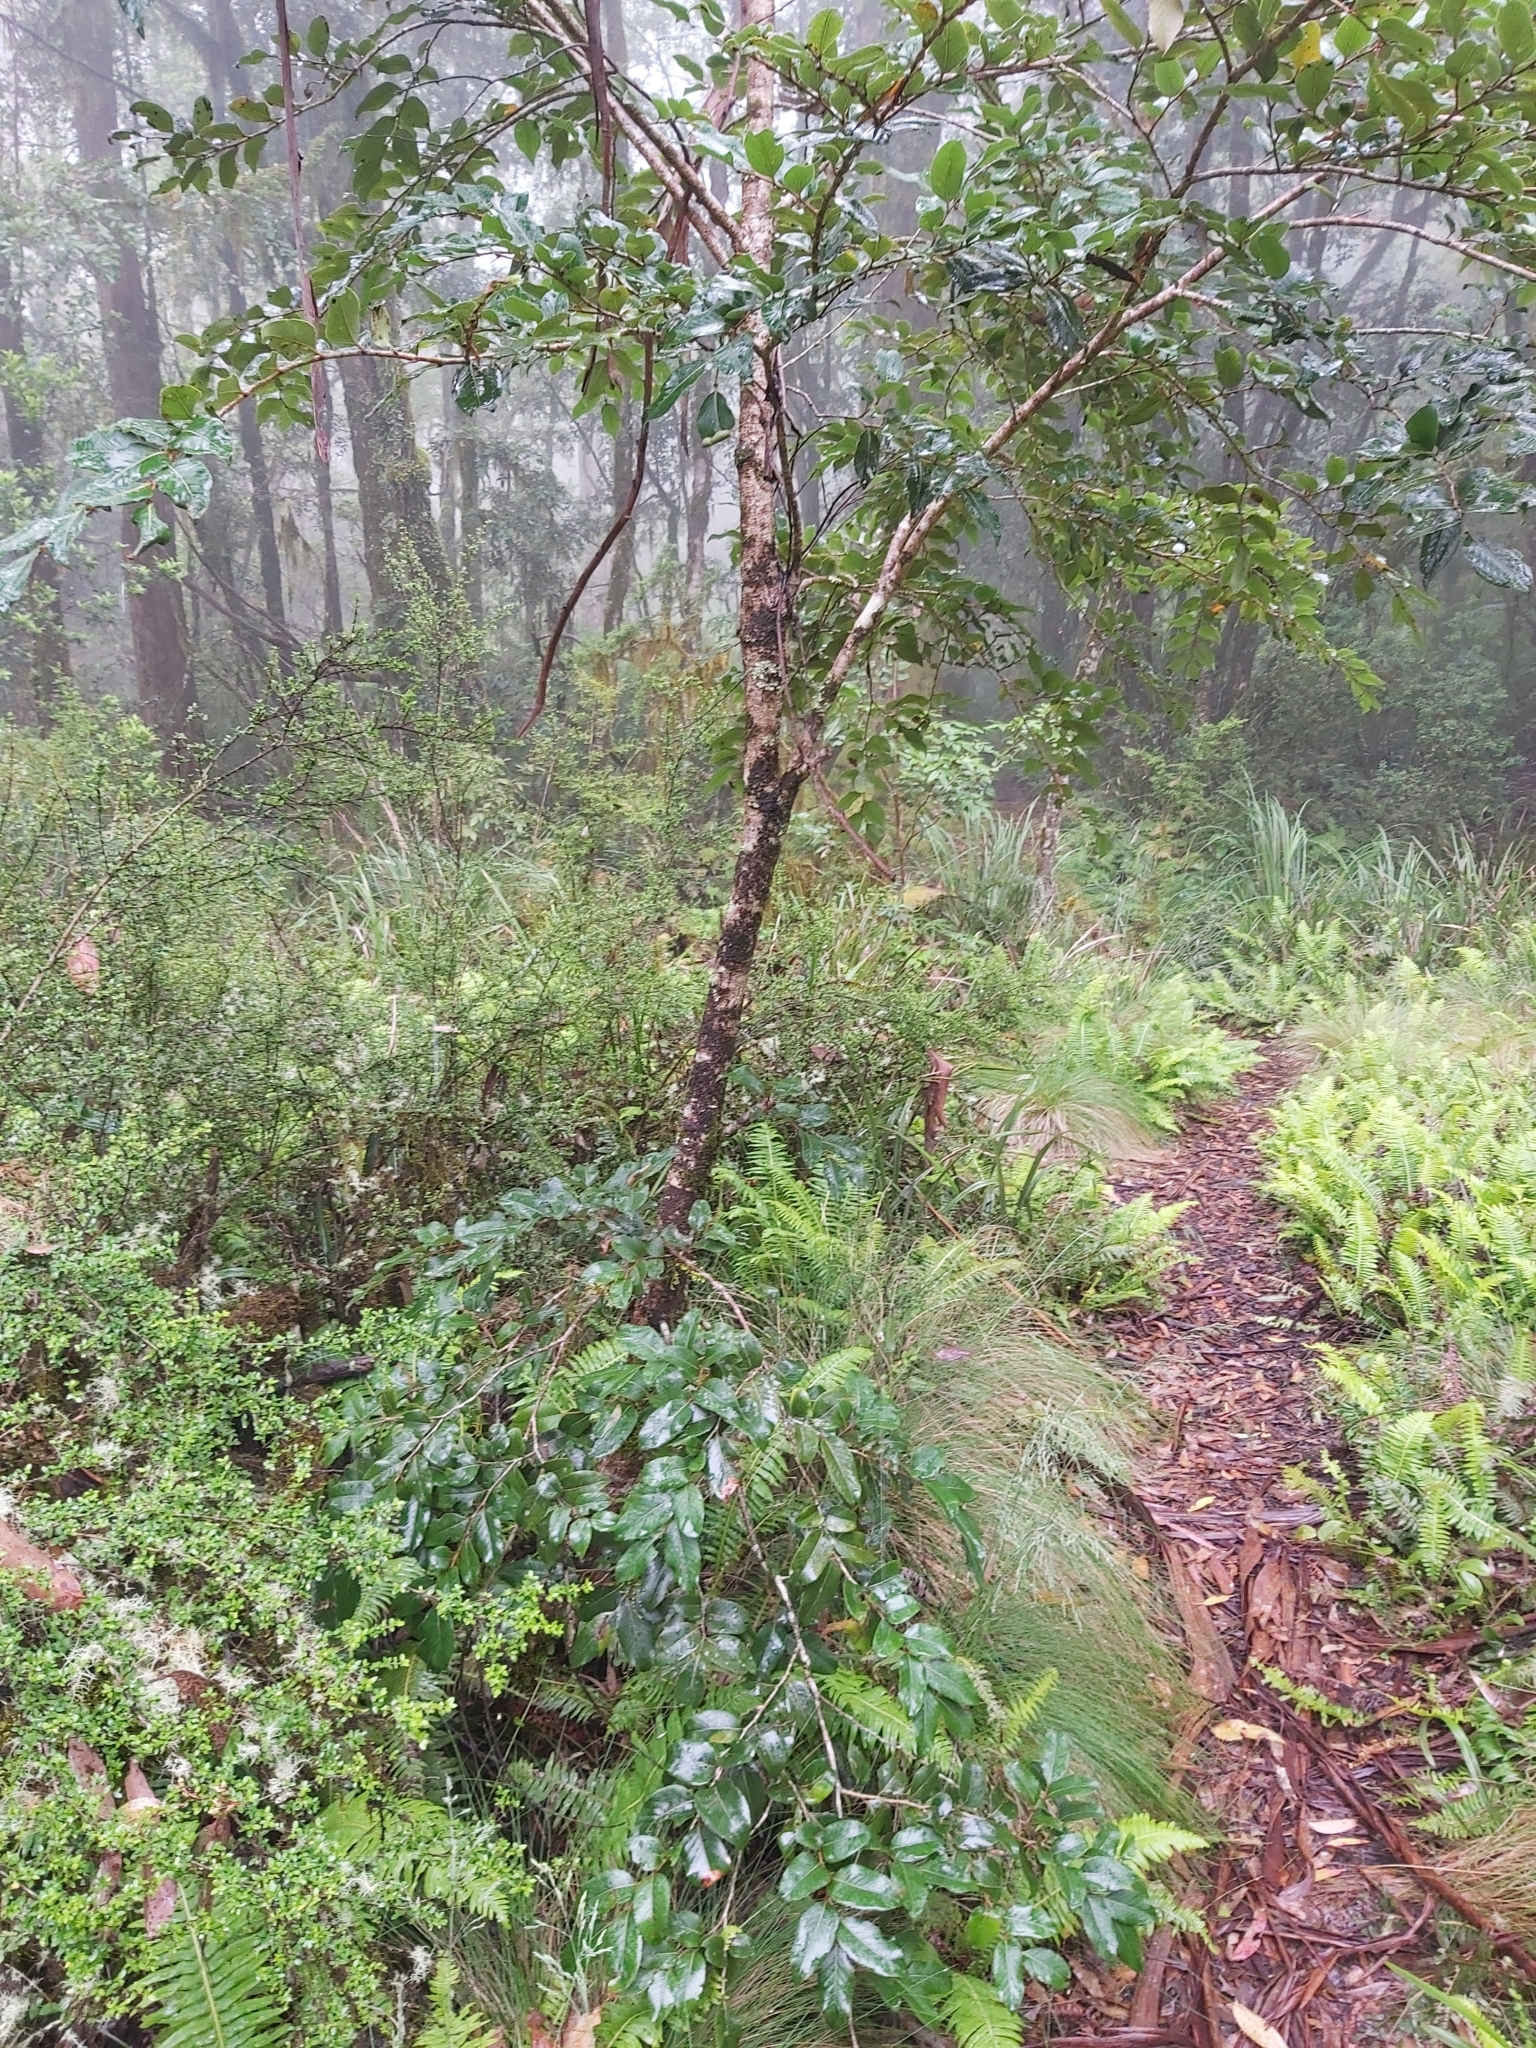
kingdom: Plantae
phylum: Tracheophyta
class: Magnoliopsida
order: Fagales
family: Nothofagaceae
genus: Nothofagus
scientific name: Nothofagus moorei
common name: Antarctic beech
